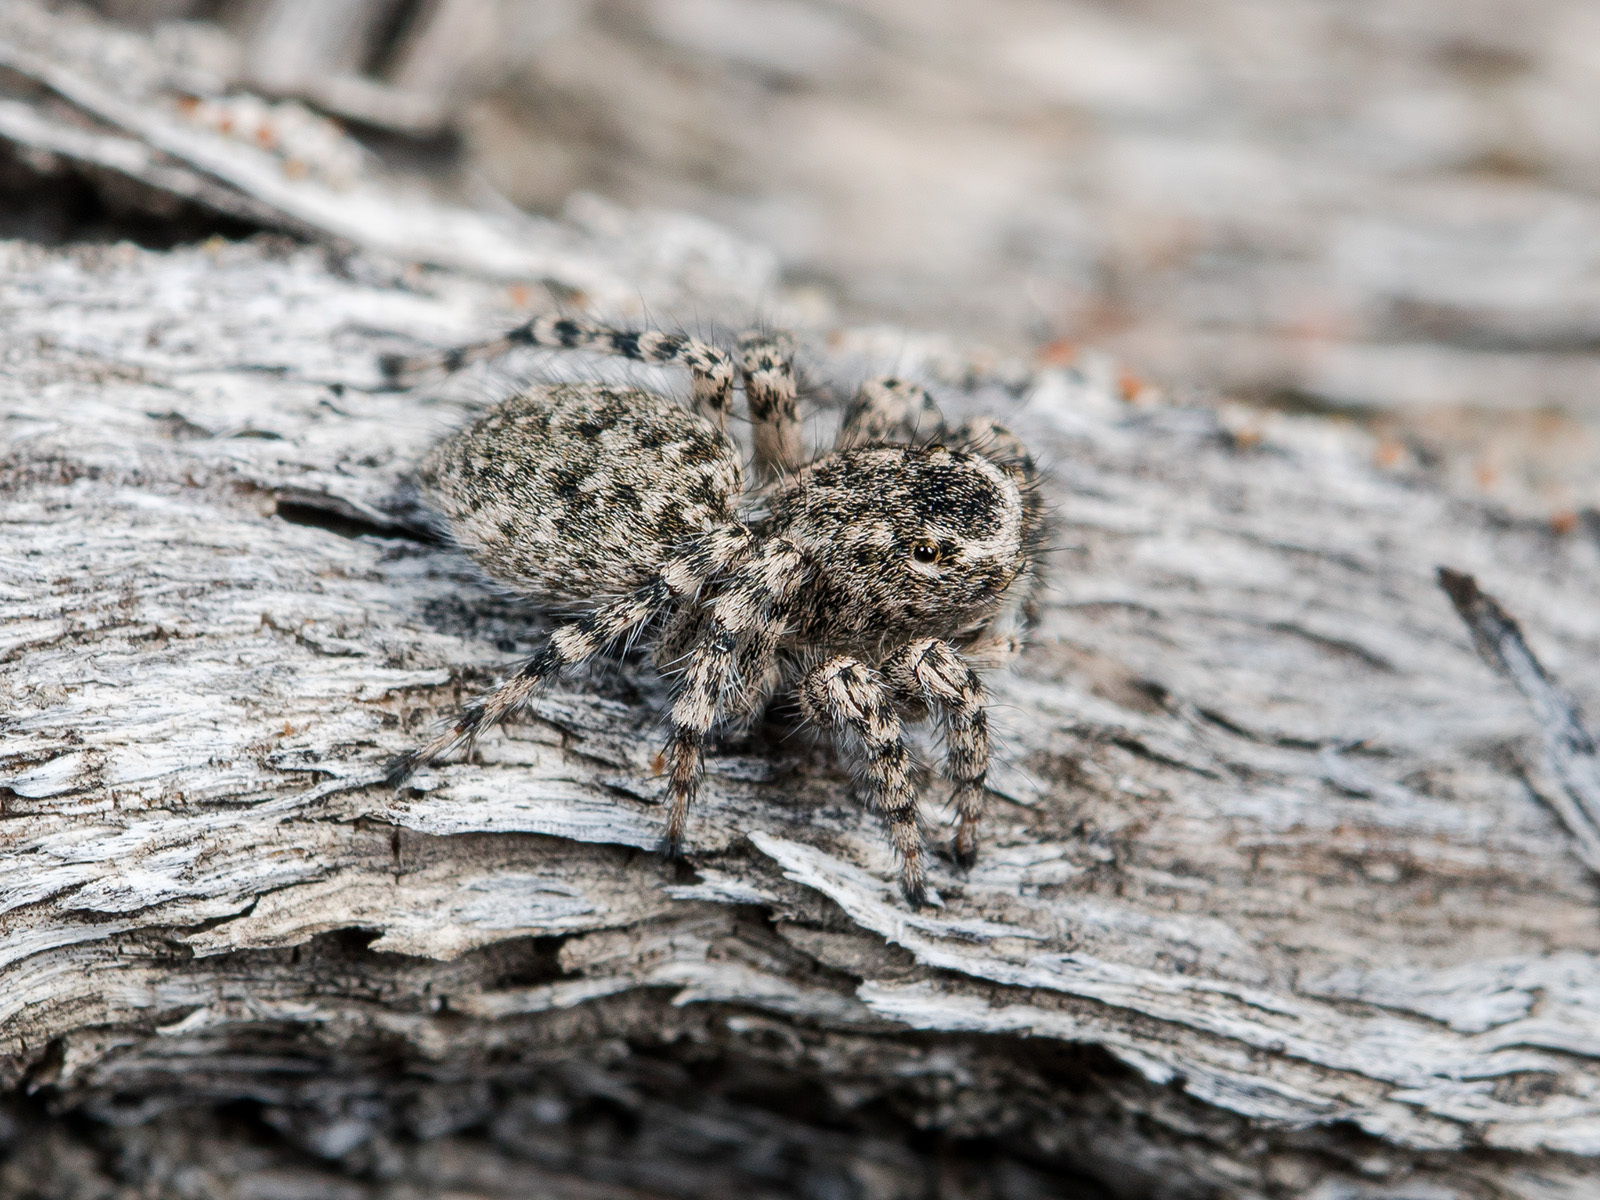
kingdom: Animalia
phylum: Arthropoda
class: Arachnida
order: Araneae
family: Salticidae
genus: Aelurillus
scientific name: Aelurillus dubatolovi
